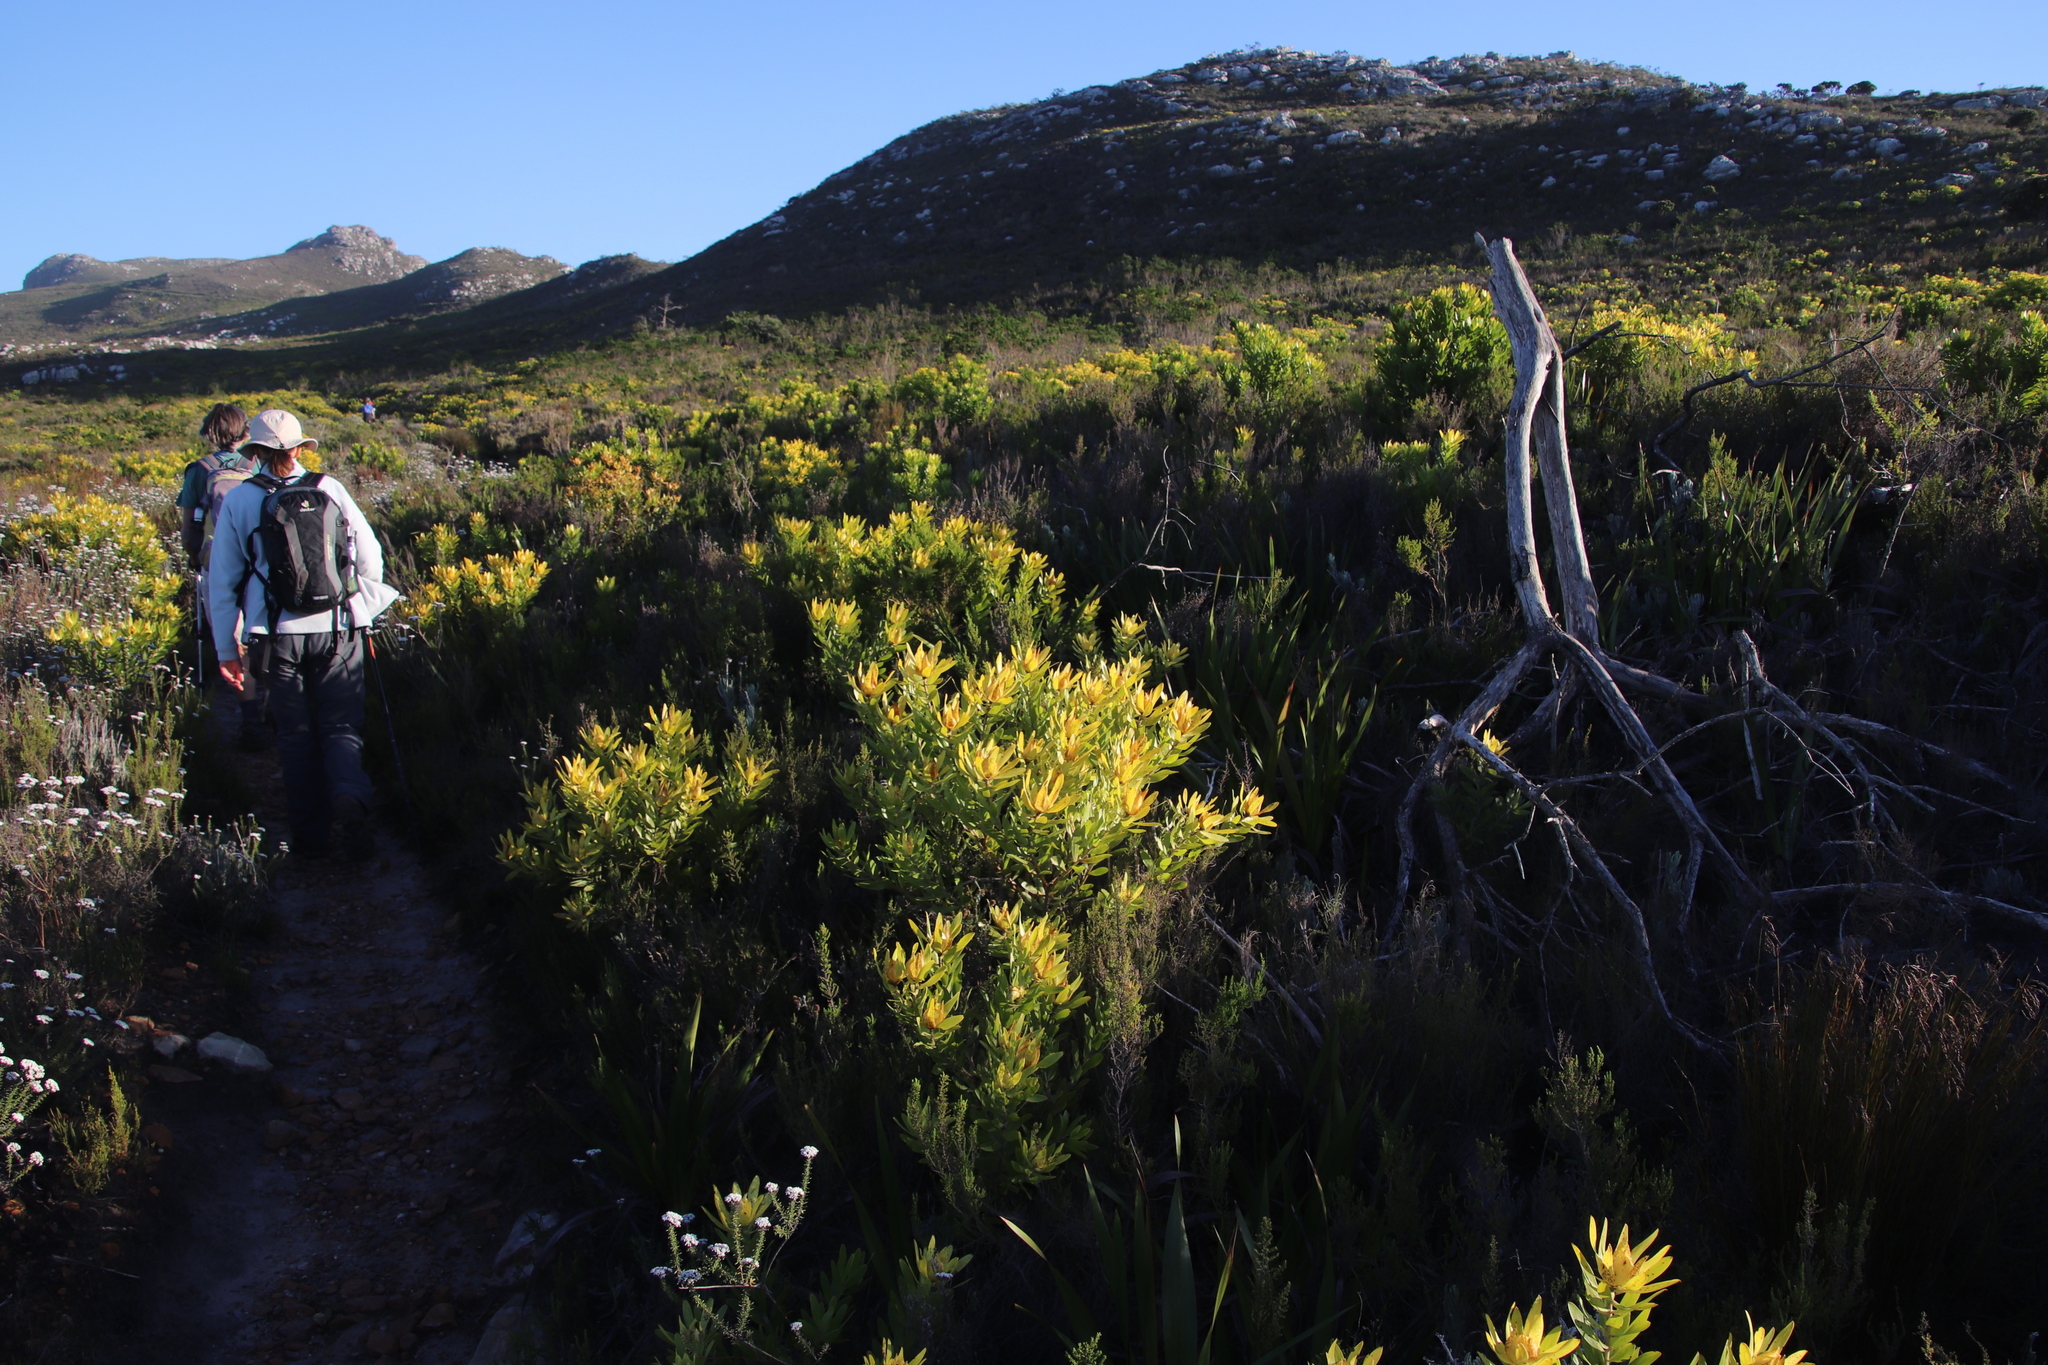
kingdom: Plantae
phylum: Tracheophyta
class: Magnoliopsida
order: Proteales
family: Proteaceae
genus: Leucadendron
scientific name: Leucadendron laureolum
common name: Golden sunshinebush
